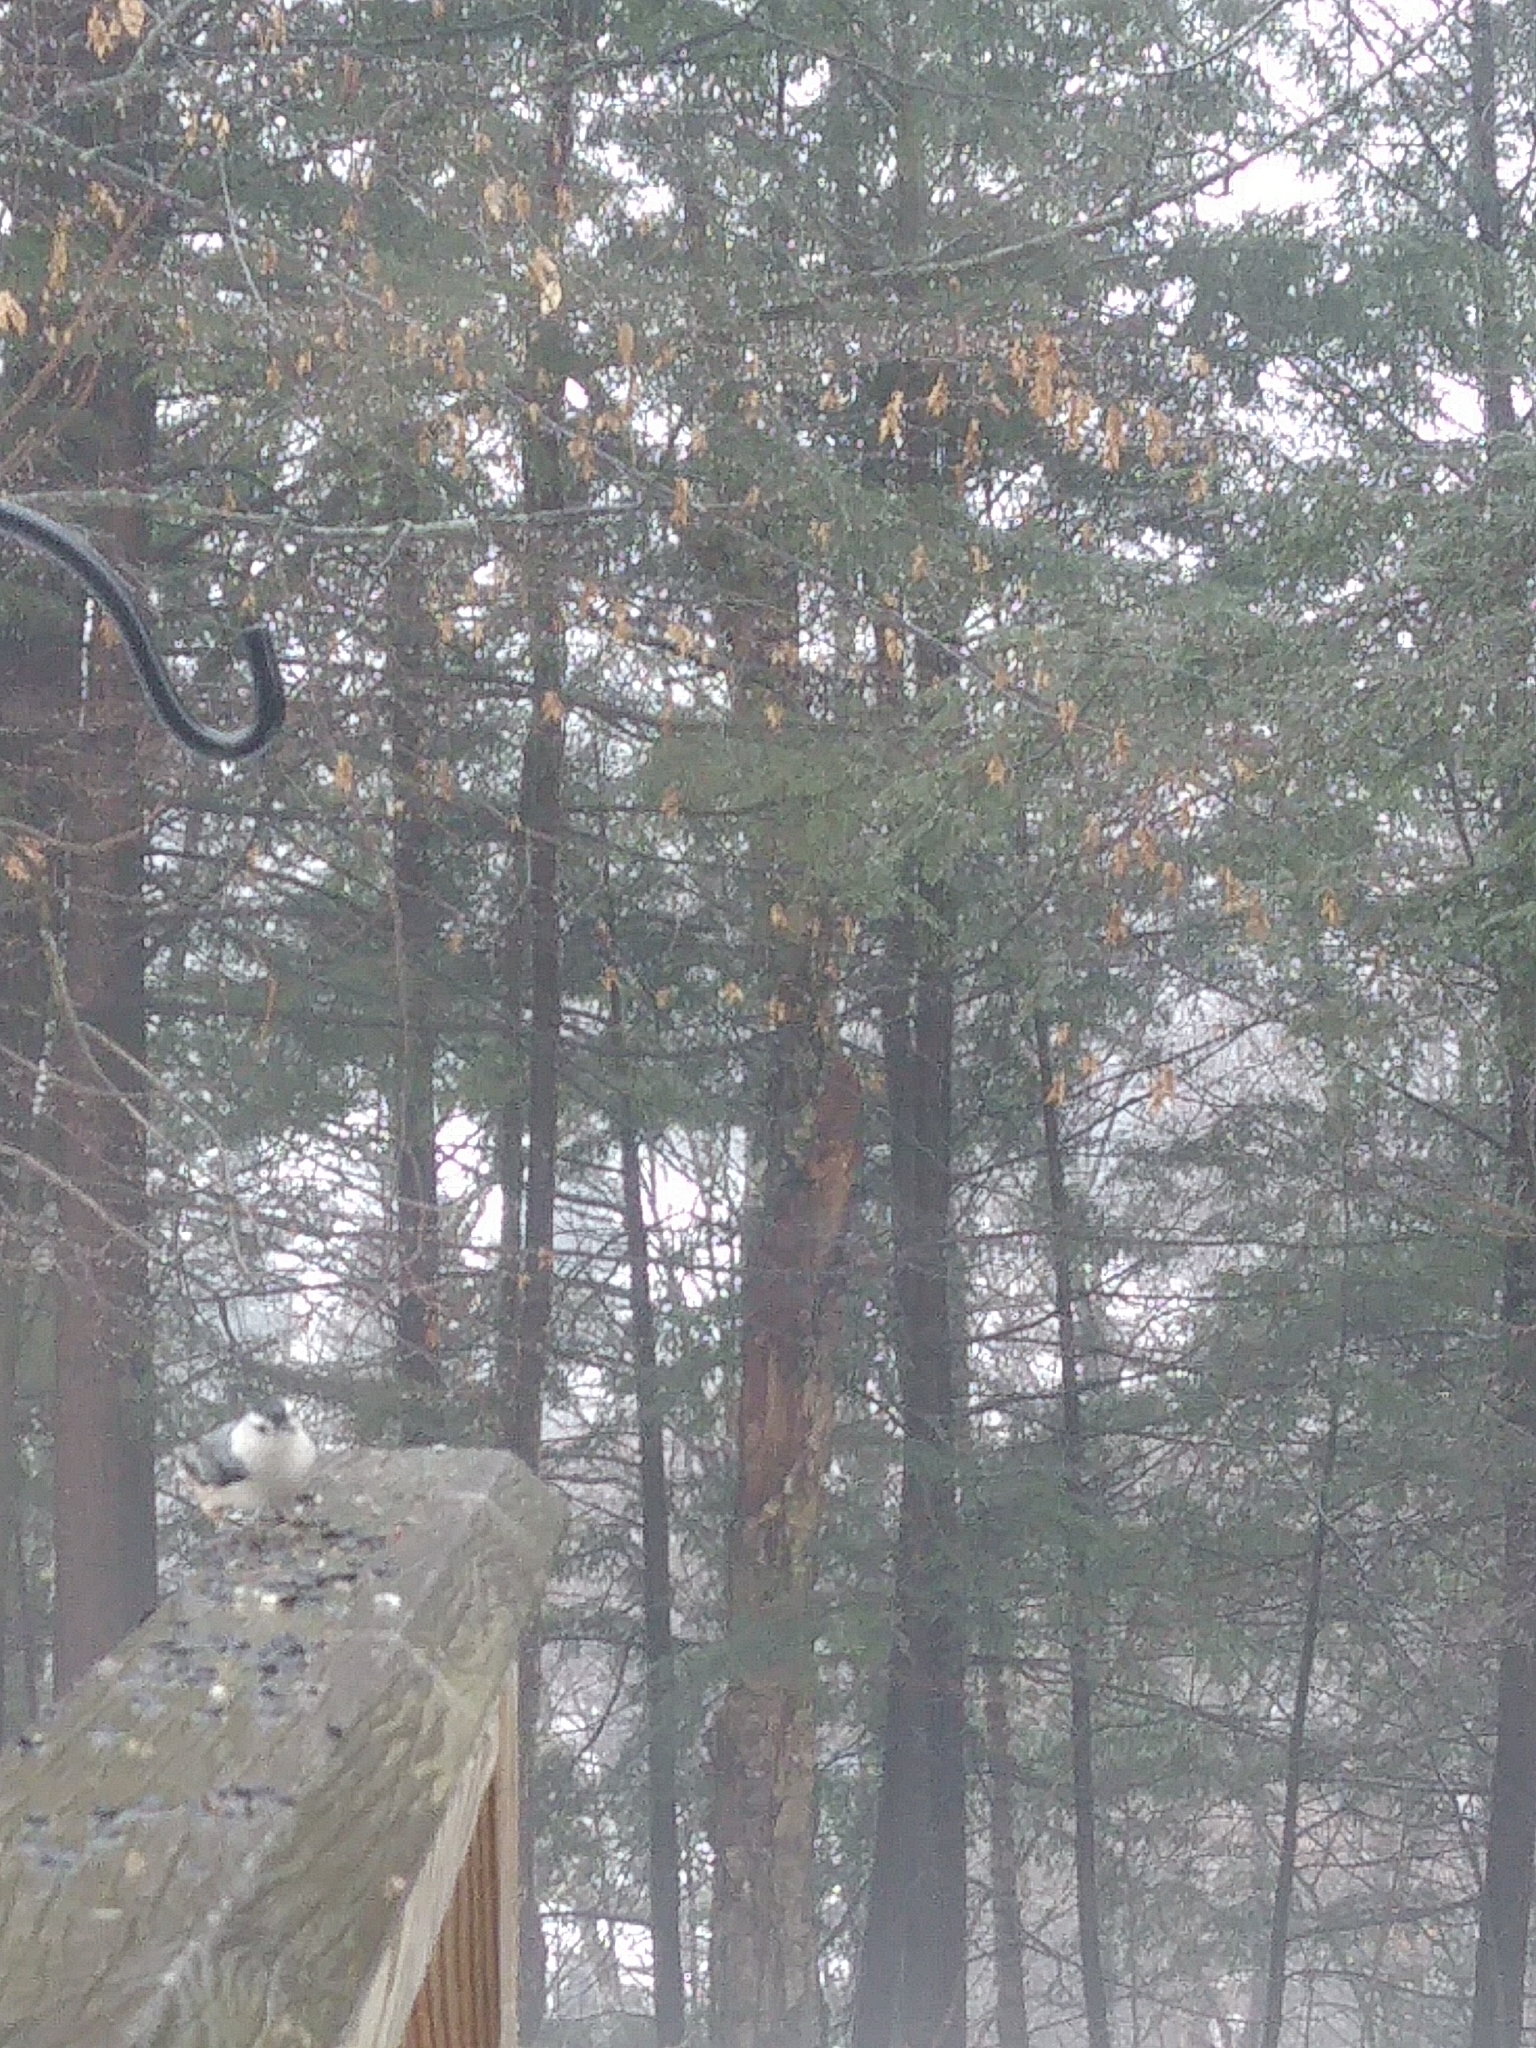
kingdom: Animalia
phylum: Chordata
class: Aves
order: Passeriformes
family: Sittidae
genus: Sitta
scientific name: Sitta carolinensis
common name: White-breasted nuthatch
